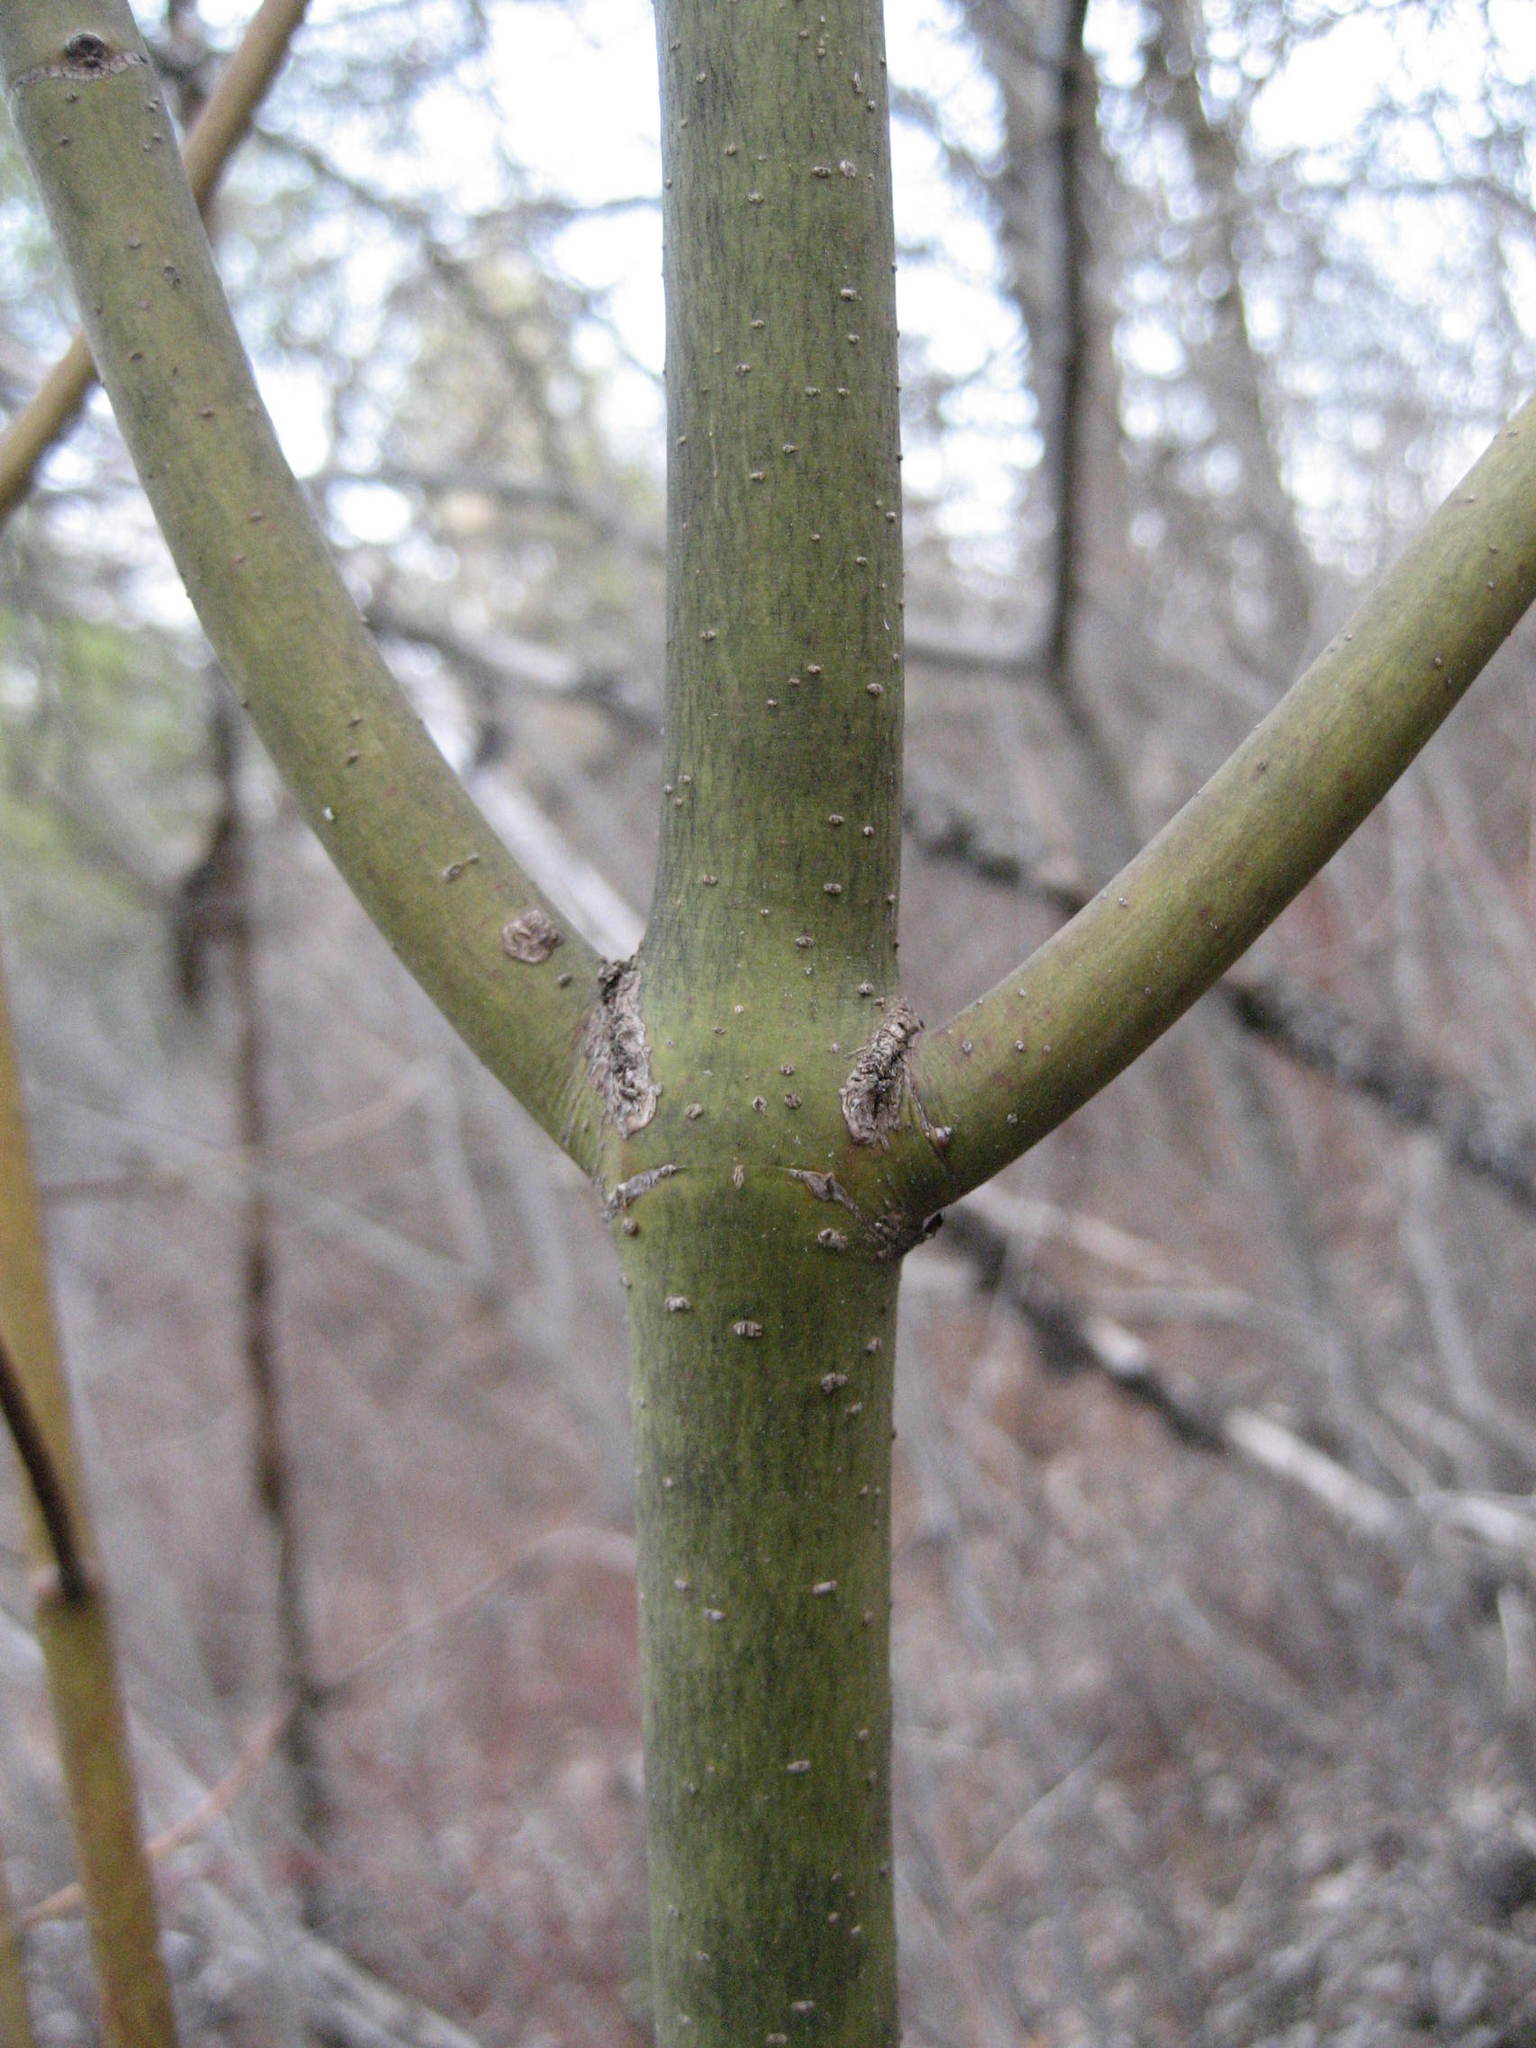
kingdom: Plantae
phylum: Tracheophyta
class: Magnoliopsida
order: Cornales
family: Cornaceae
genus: Cornus
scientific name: Cornus rugosa
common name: Round-leaf dogwood
